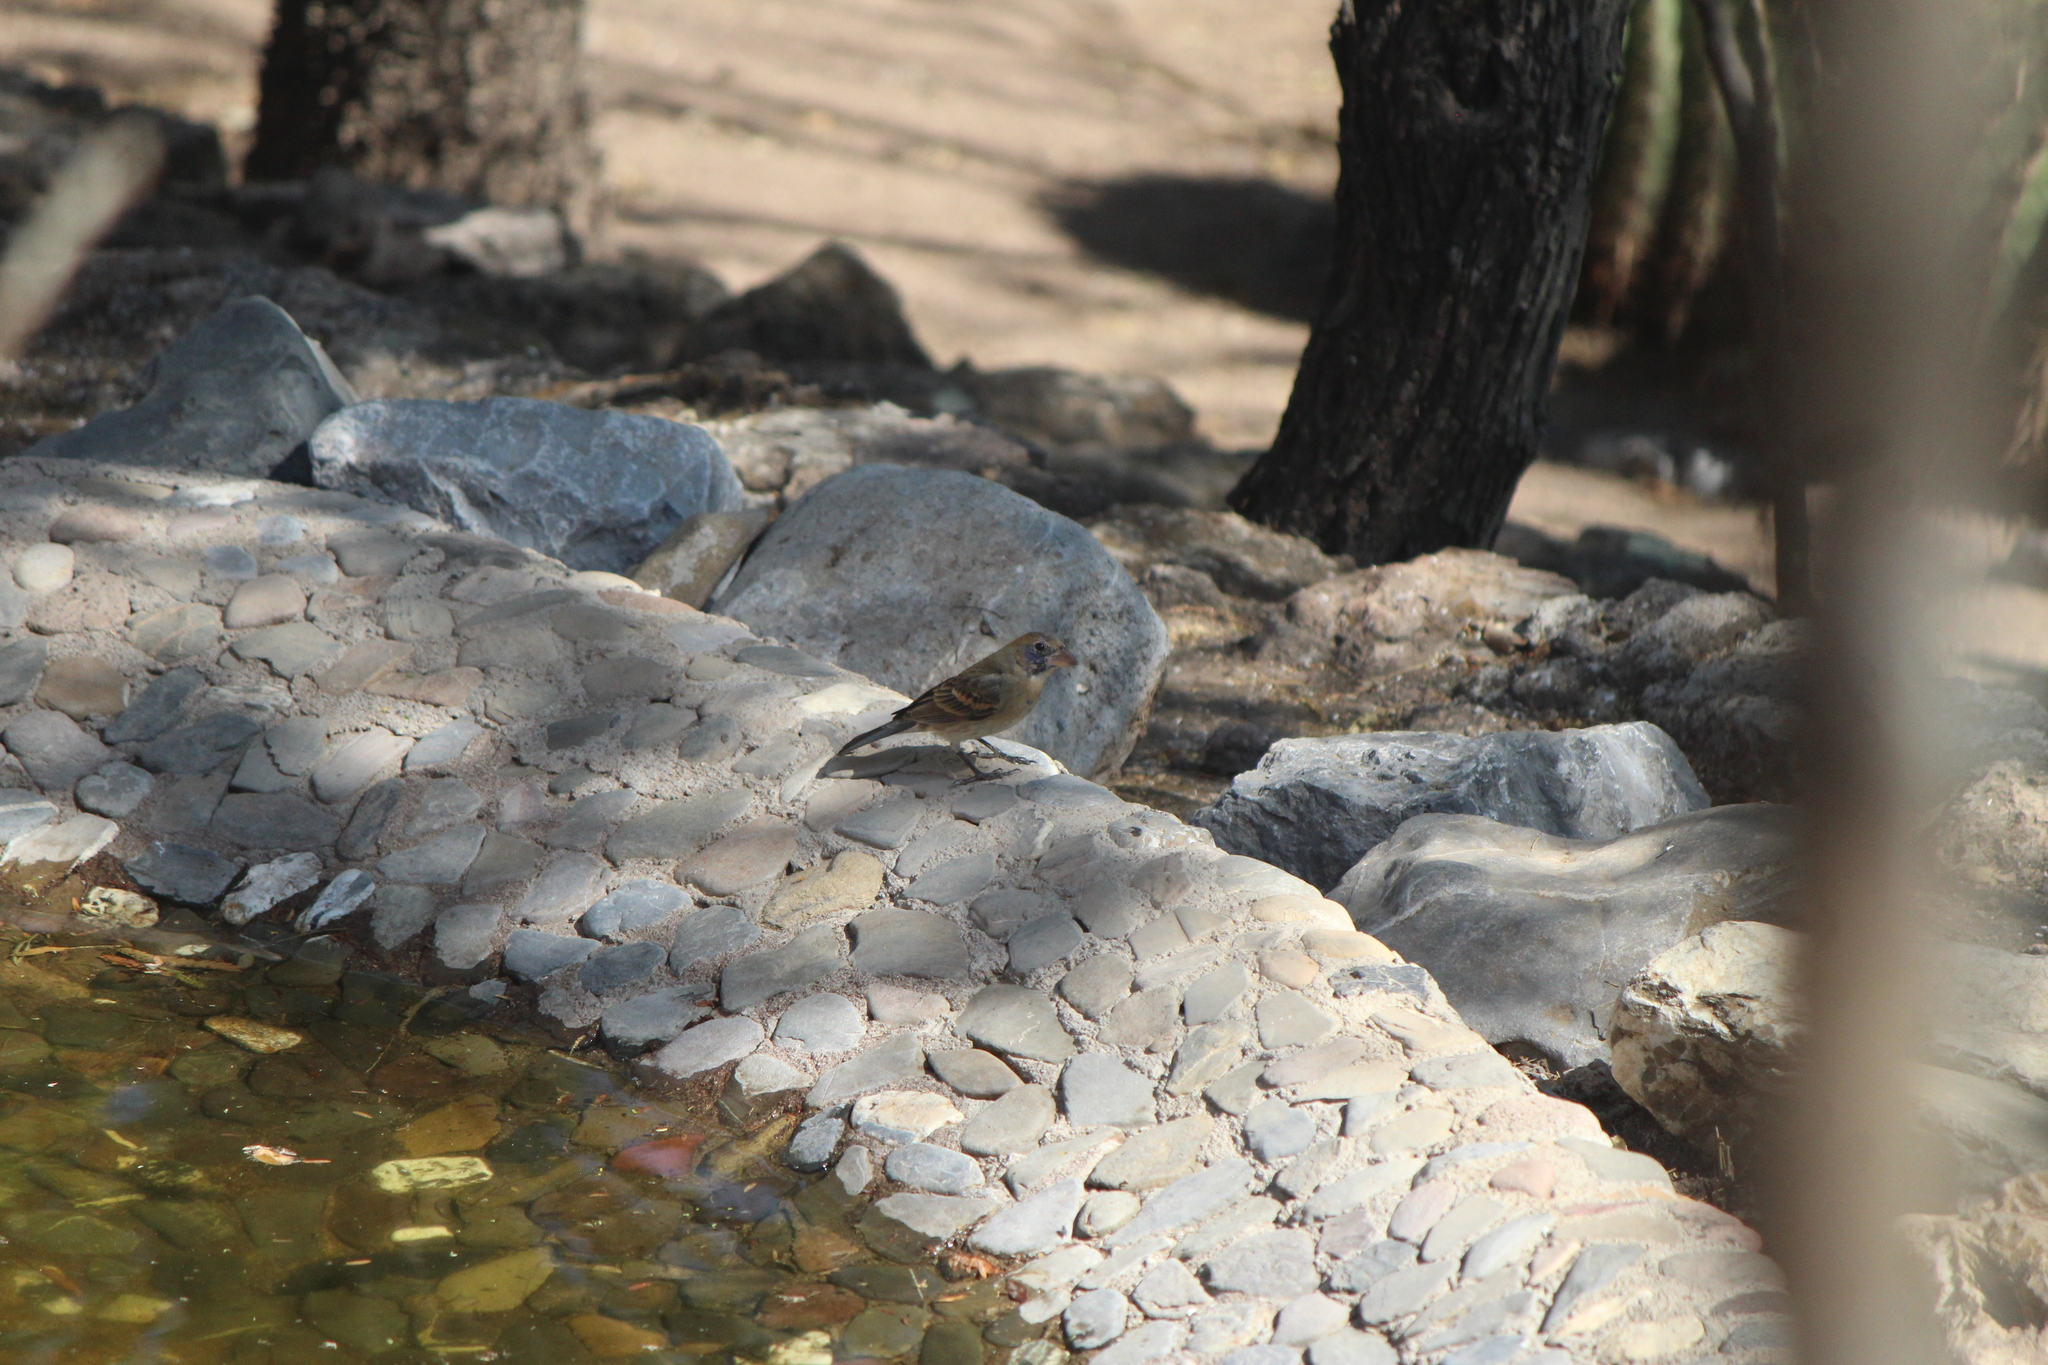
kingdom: Animalia
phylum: Chordata
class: Aves
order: Passeriformes
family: Cardinalidae
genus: Passerina
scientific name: Passerina caerulea
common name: Blue grosbeak
